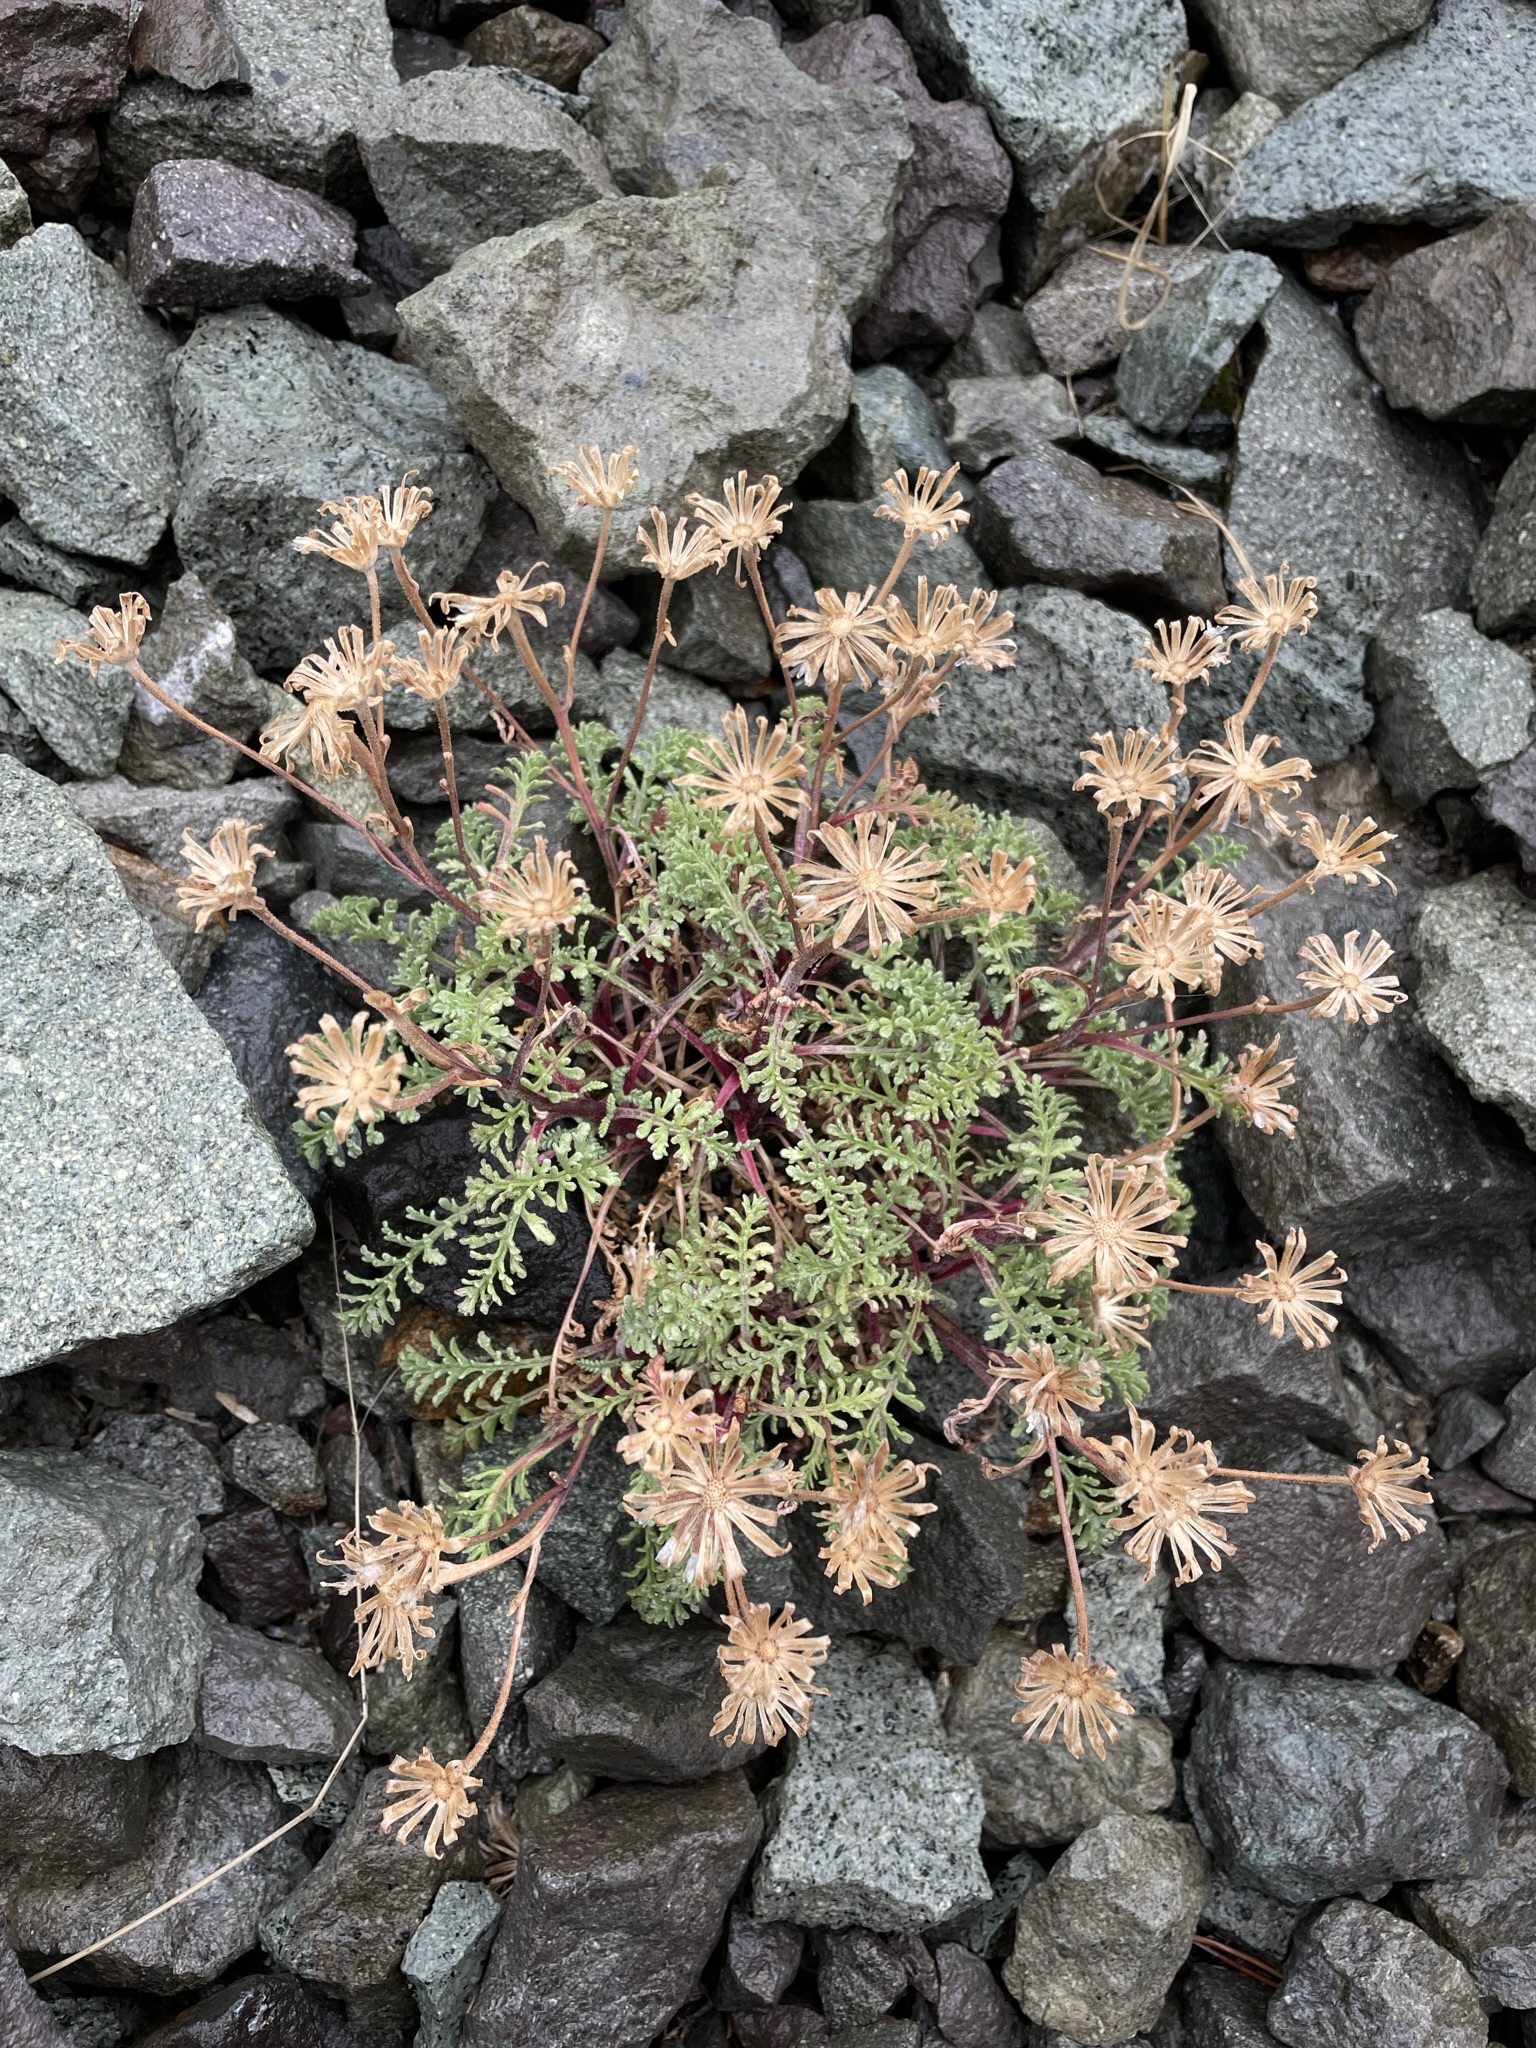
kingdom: Plantae
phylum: Tracheophyta
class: Magnoliopsida
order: Asterales
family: Asteraceae
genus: Chaenactis
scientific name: Chaenactis douglasii
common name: Hoary pincushion
